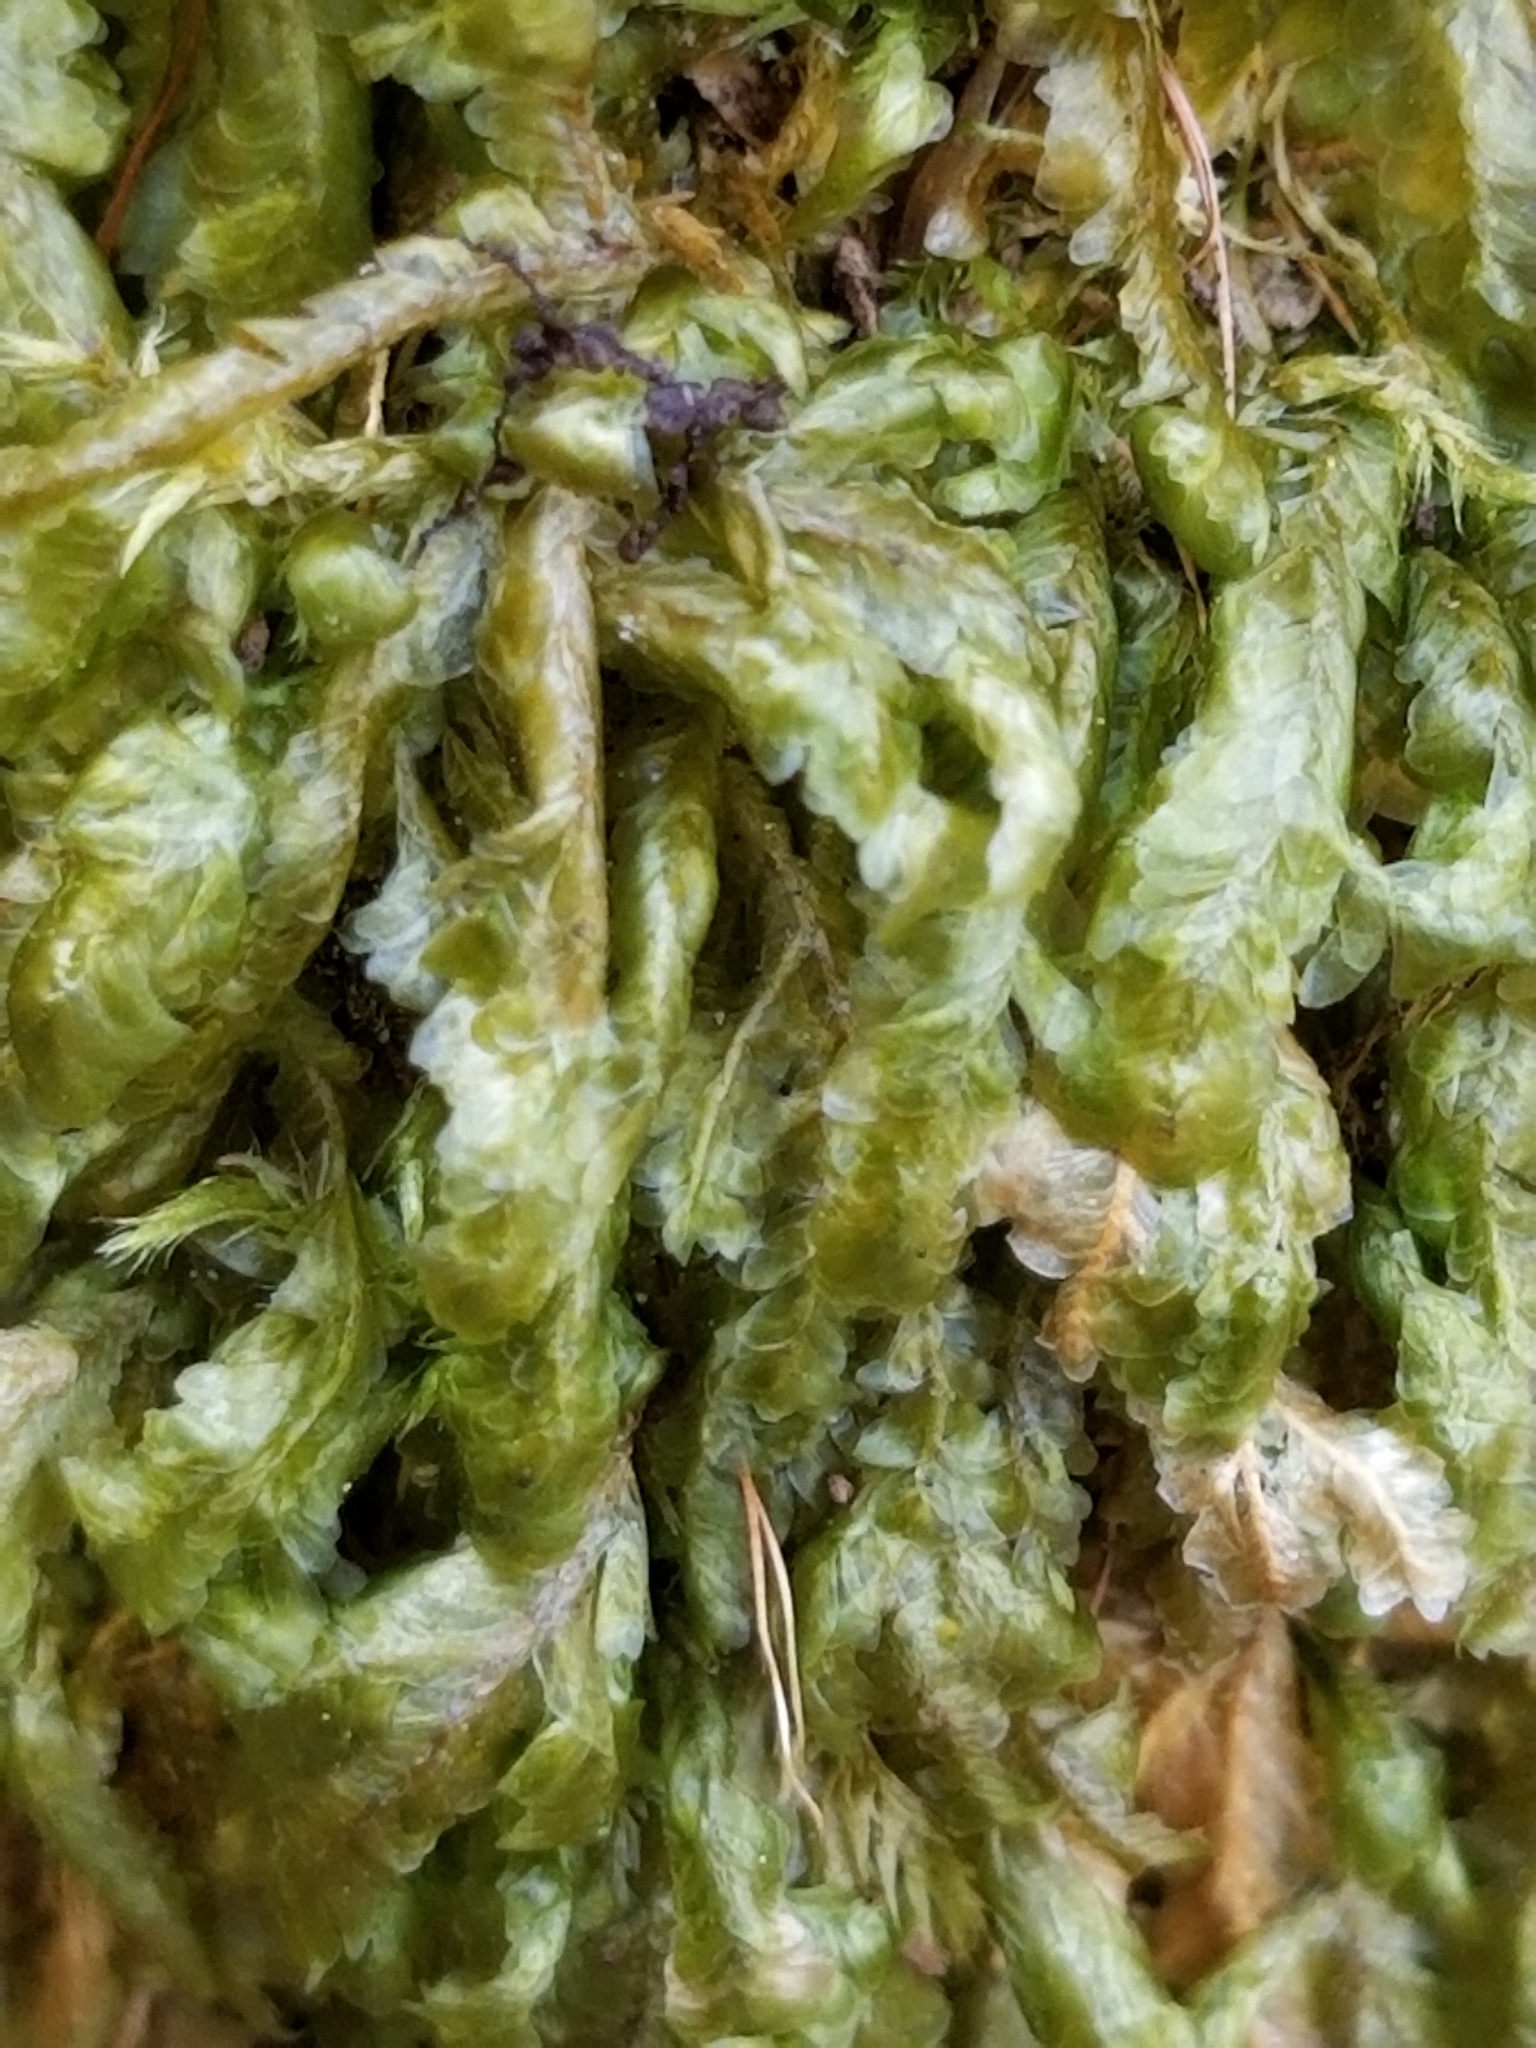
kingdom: Plantae
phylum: Bryophyta
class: Bryopsida
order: Hypnales
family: Neckeraceae
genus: Homalia
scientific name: Homalia trichomanoides
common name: Lime homalia moss
